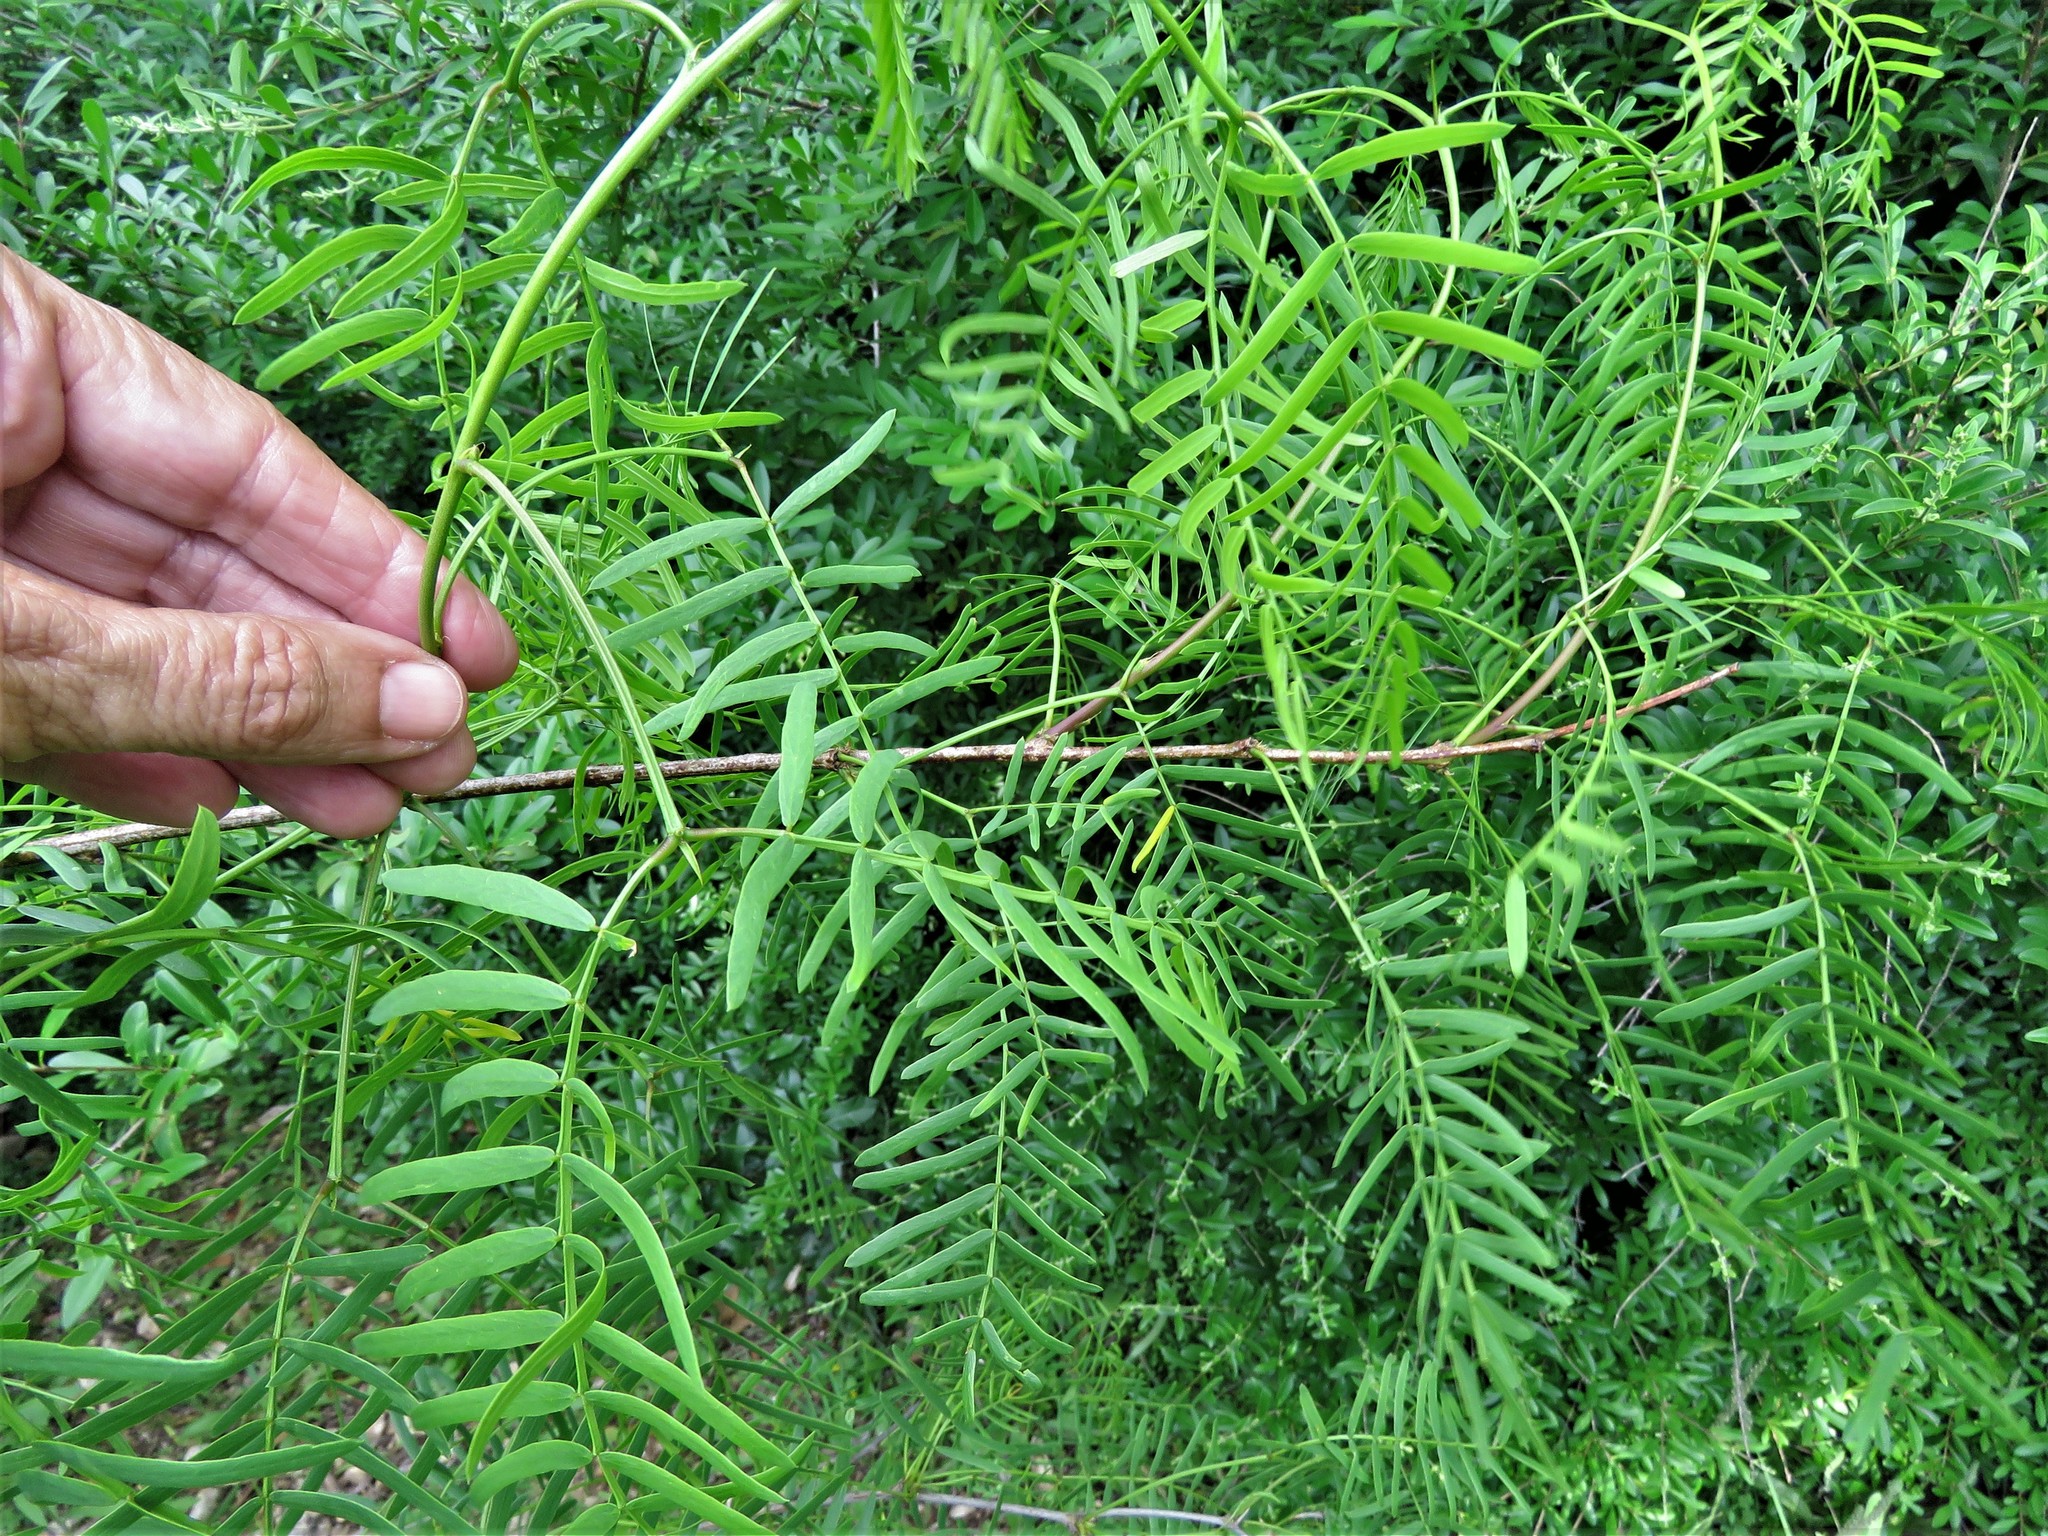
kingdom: Plantae
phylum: Tracheophyta
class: Magnoliopsida
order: Fabales
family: Fabaceae
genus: Prosopis
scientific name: Prosopis glandulosa
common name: Honey mesquite
